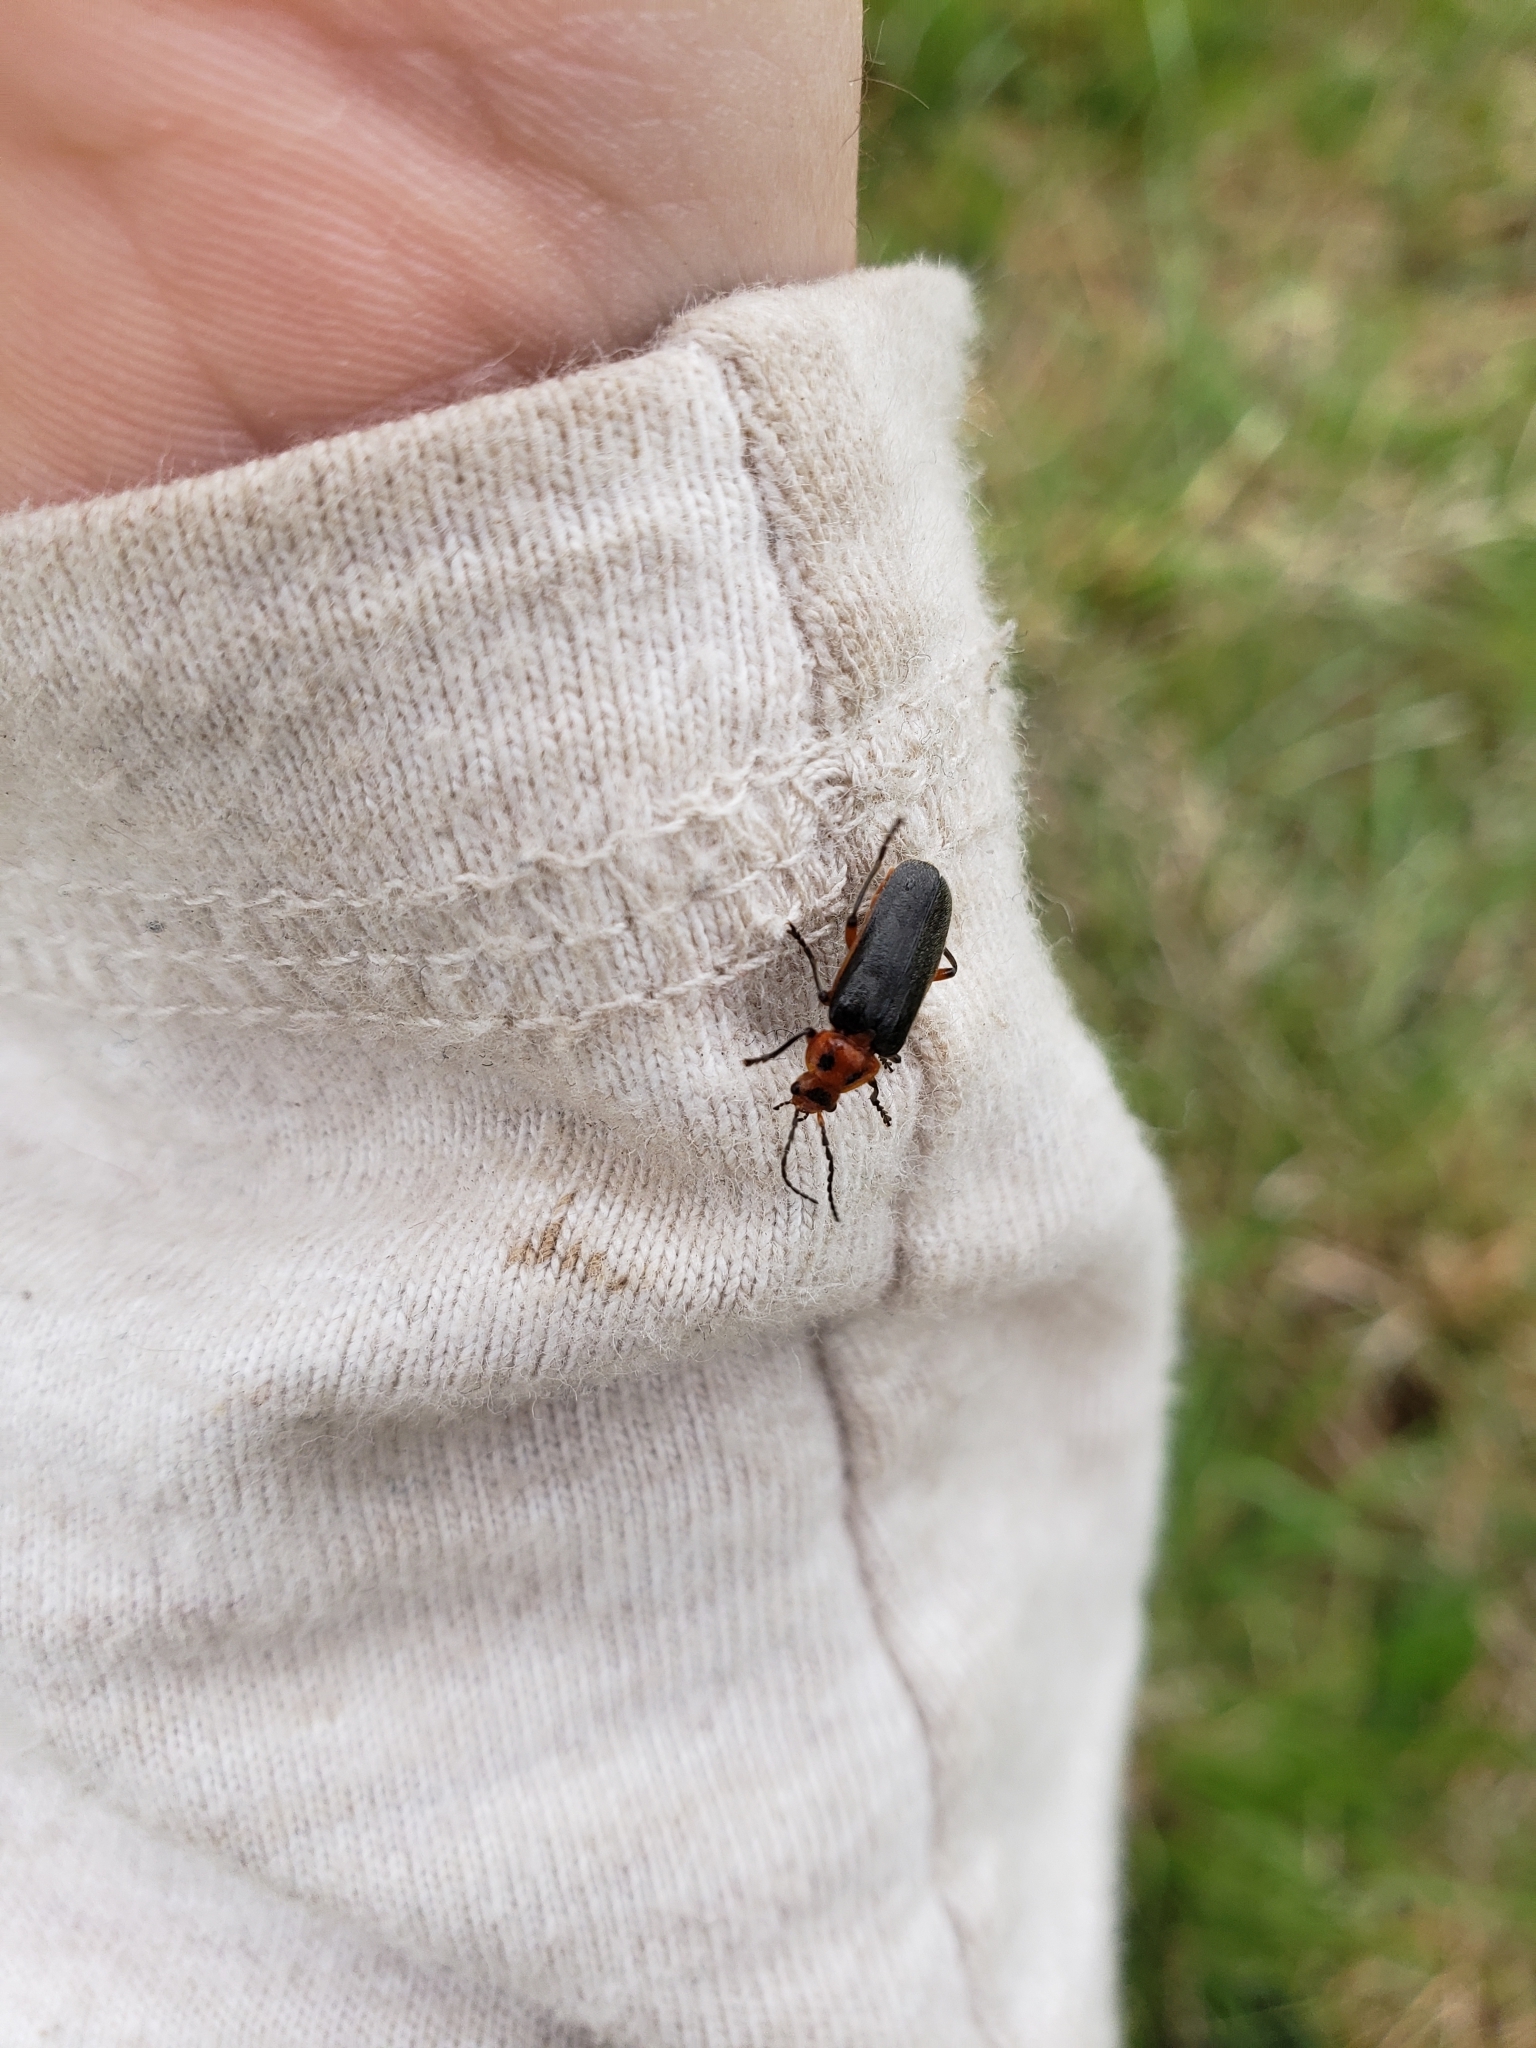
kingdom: Animalia
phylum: Arthropoda
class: Insecta
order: Coleoptera
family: Cantharidae
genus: Atalantycha
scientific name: Atalantycha bilineata
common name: Two-lined leatherwing
